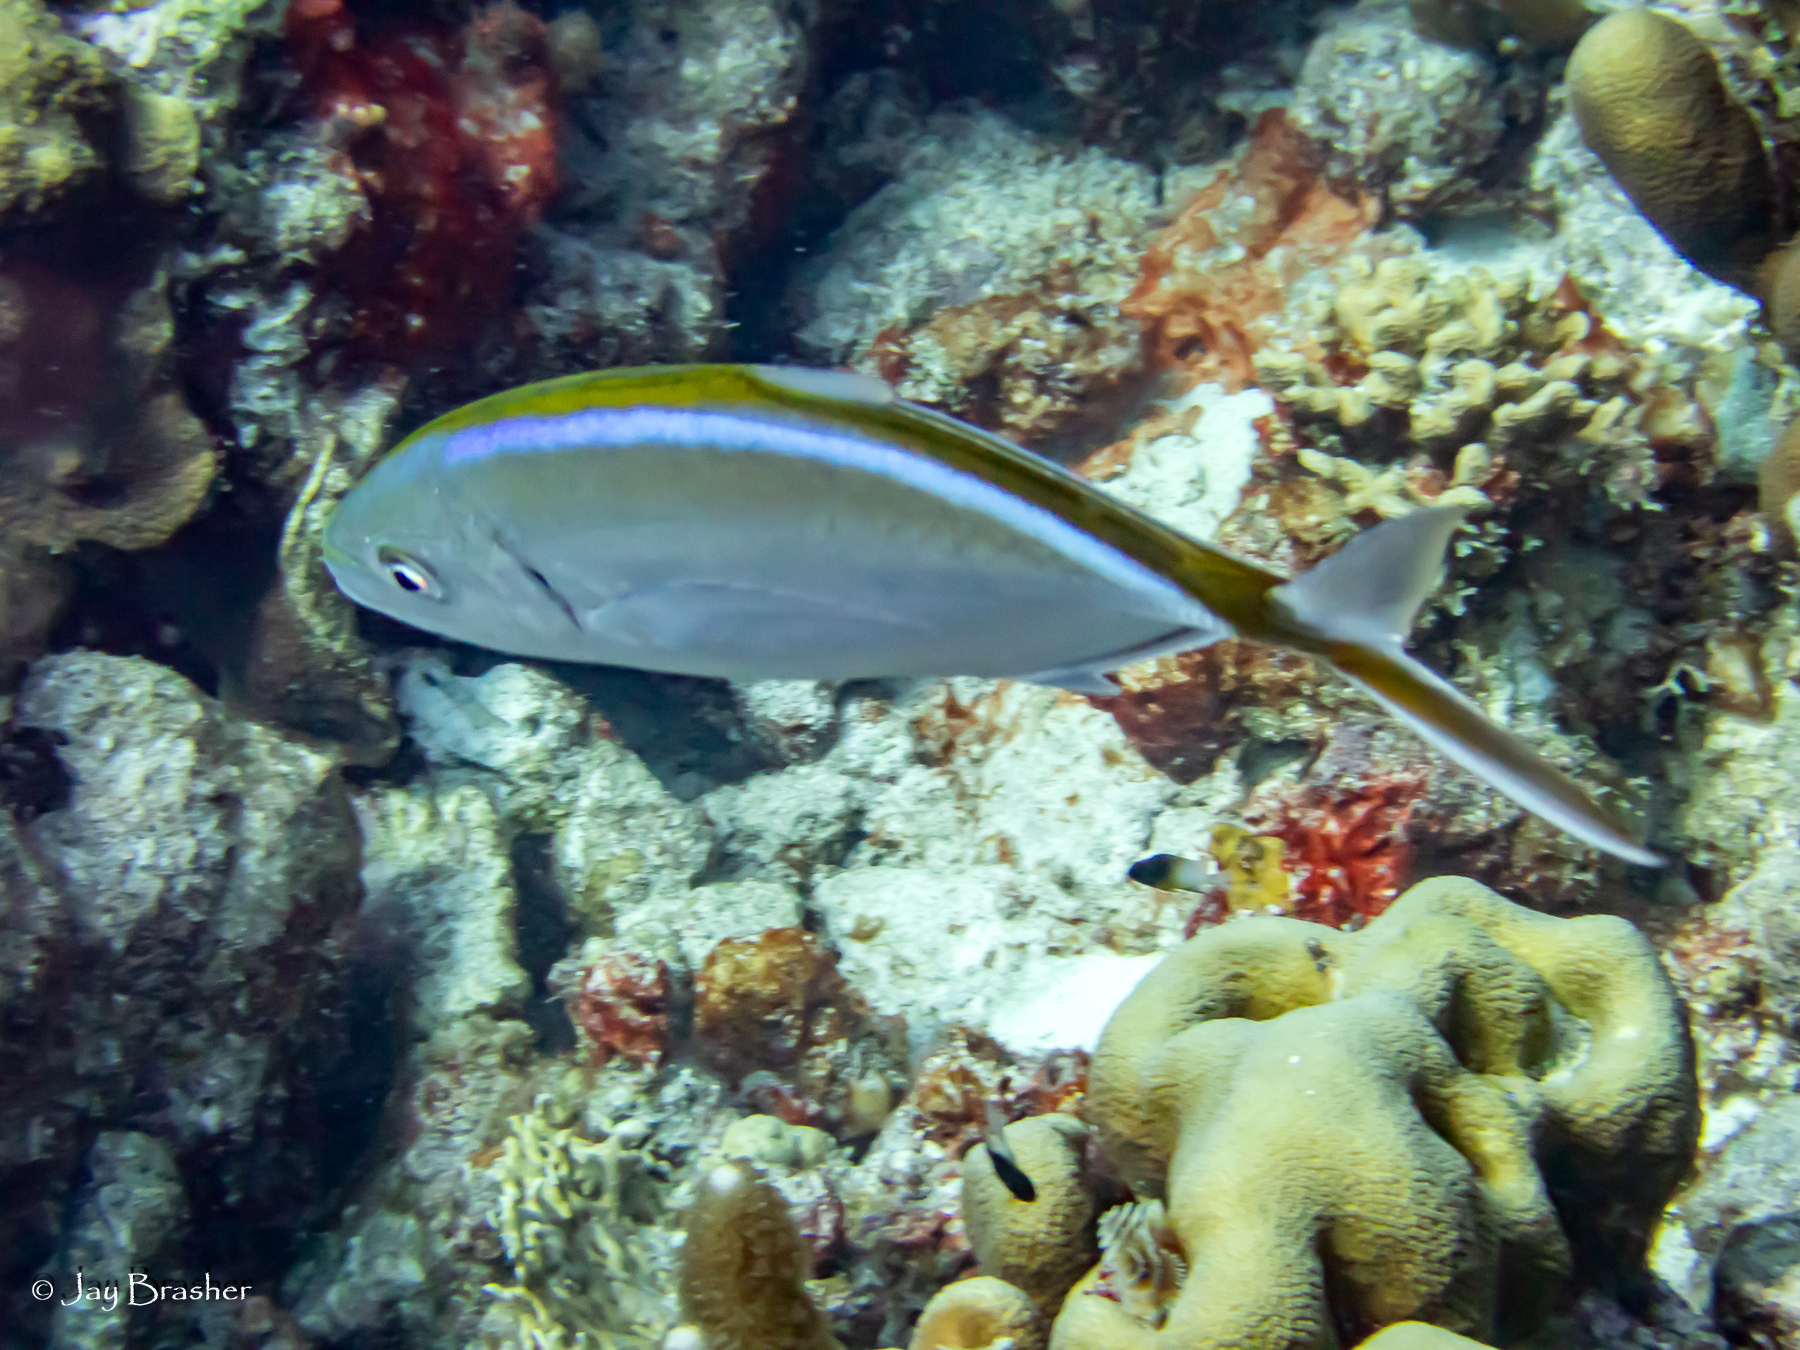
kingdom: Animalia
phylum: Chordata
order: Perciformes
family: Carangidae
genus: Caranx
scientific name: Caranx ruber
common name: Bar jack
